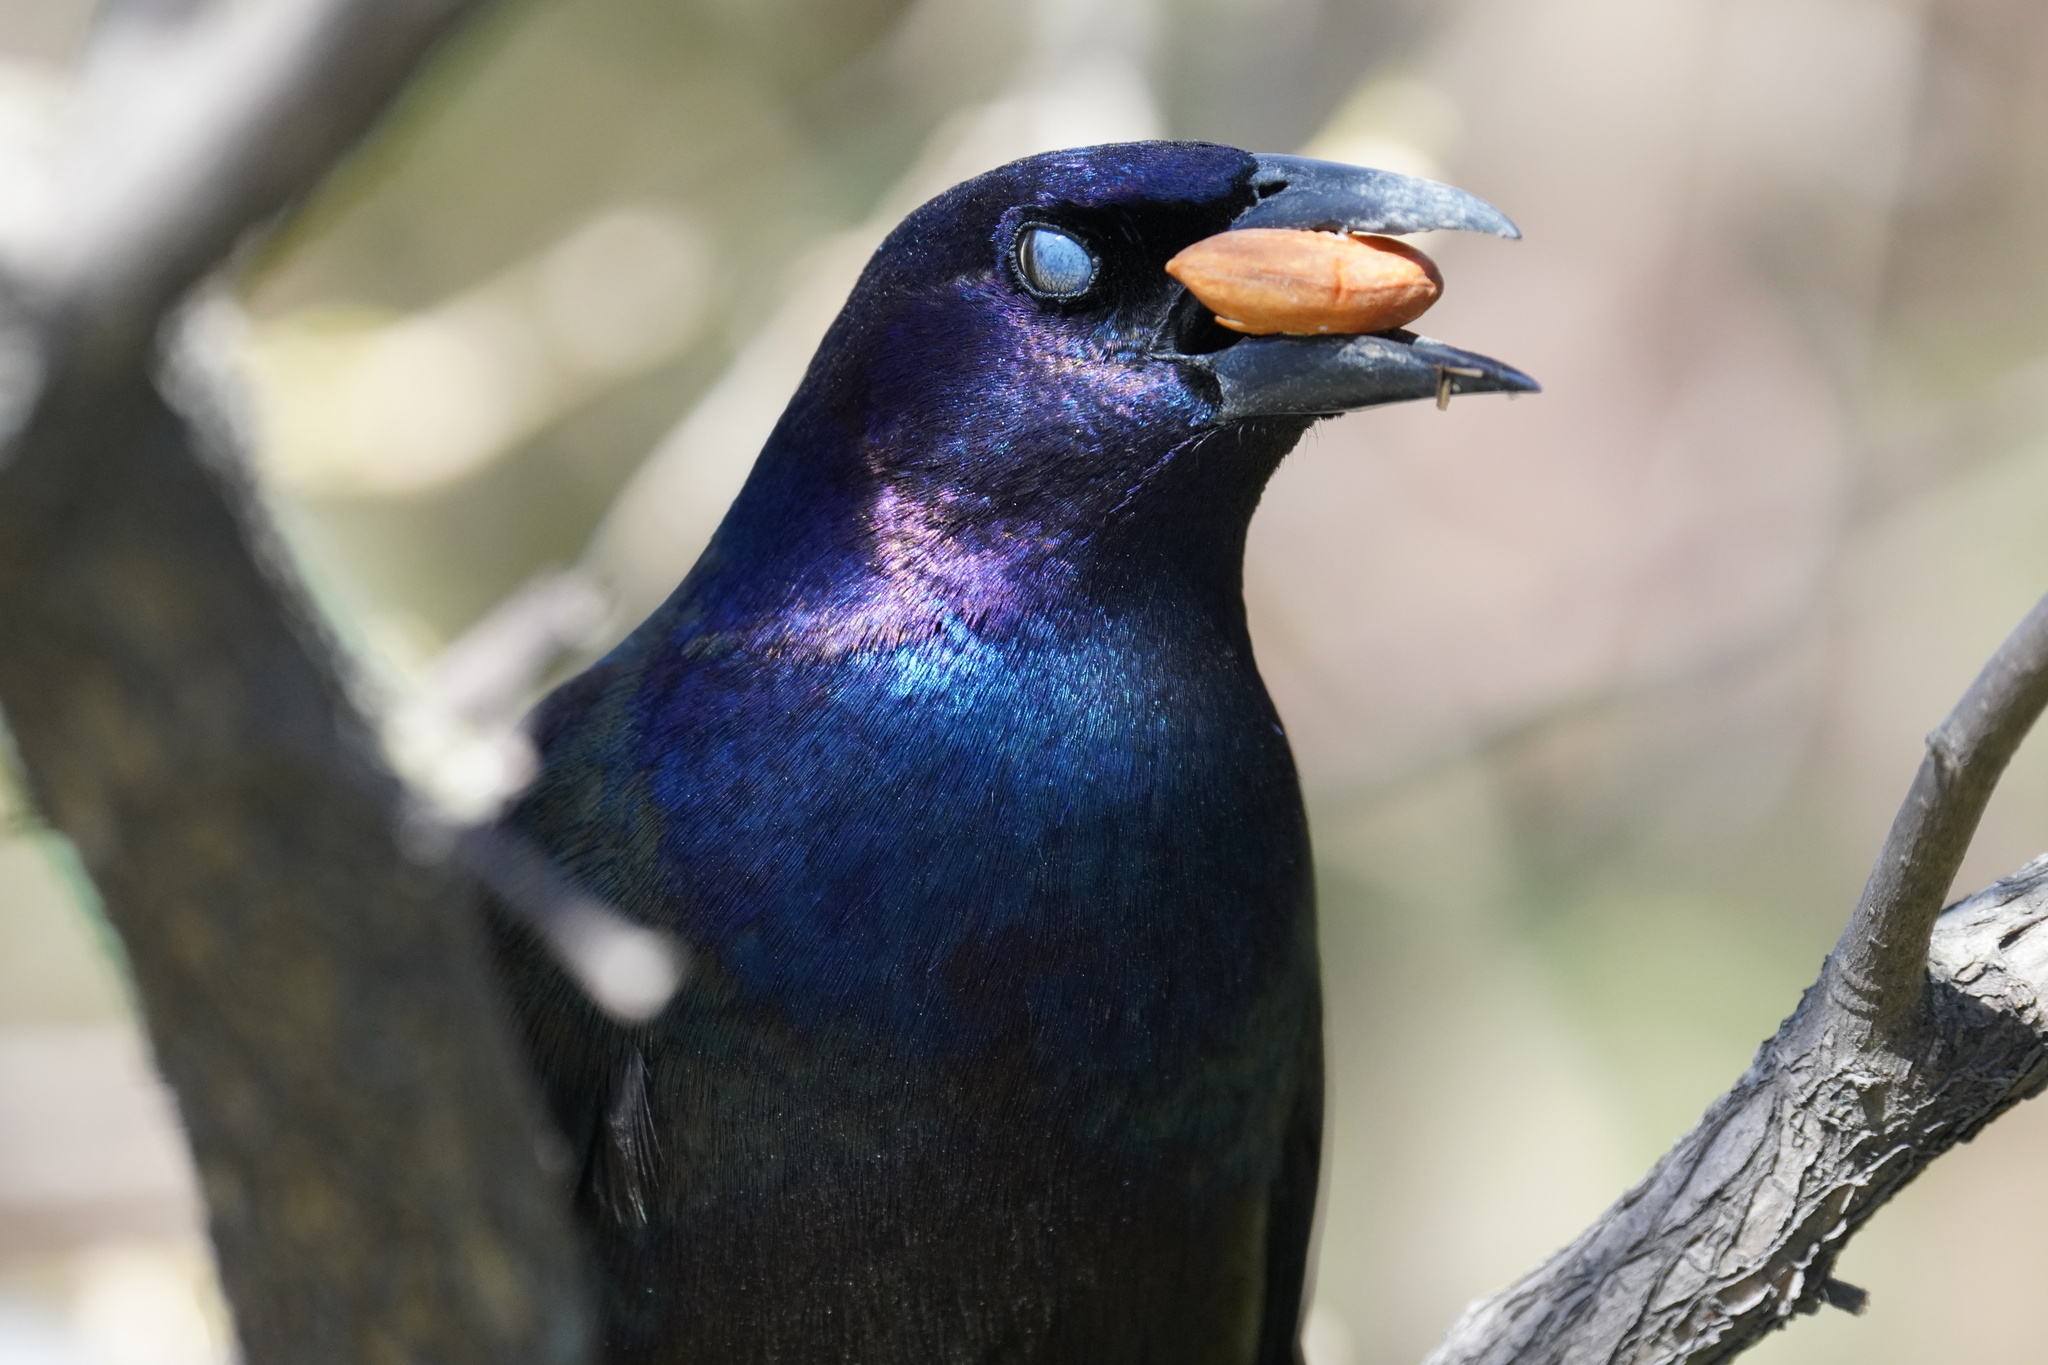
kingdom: Animalia
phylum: Chordata
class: Aves
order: Passeriformes
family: Icteridae
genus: Quiscalus
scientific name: Quiscalus quiscula
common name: Common grackle
